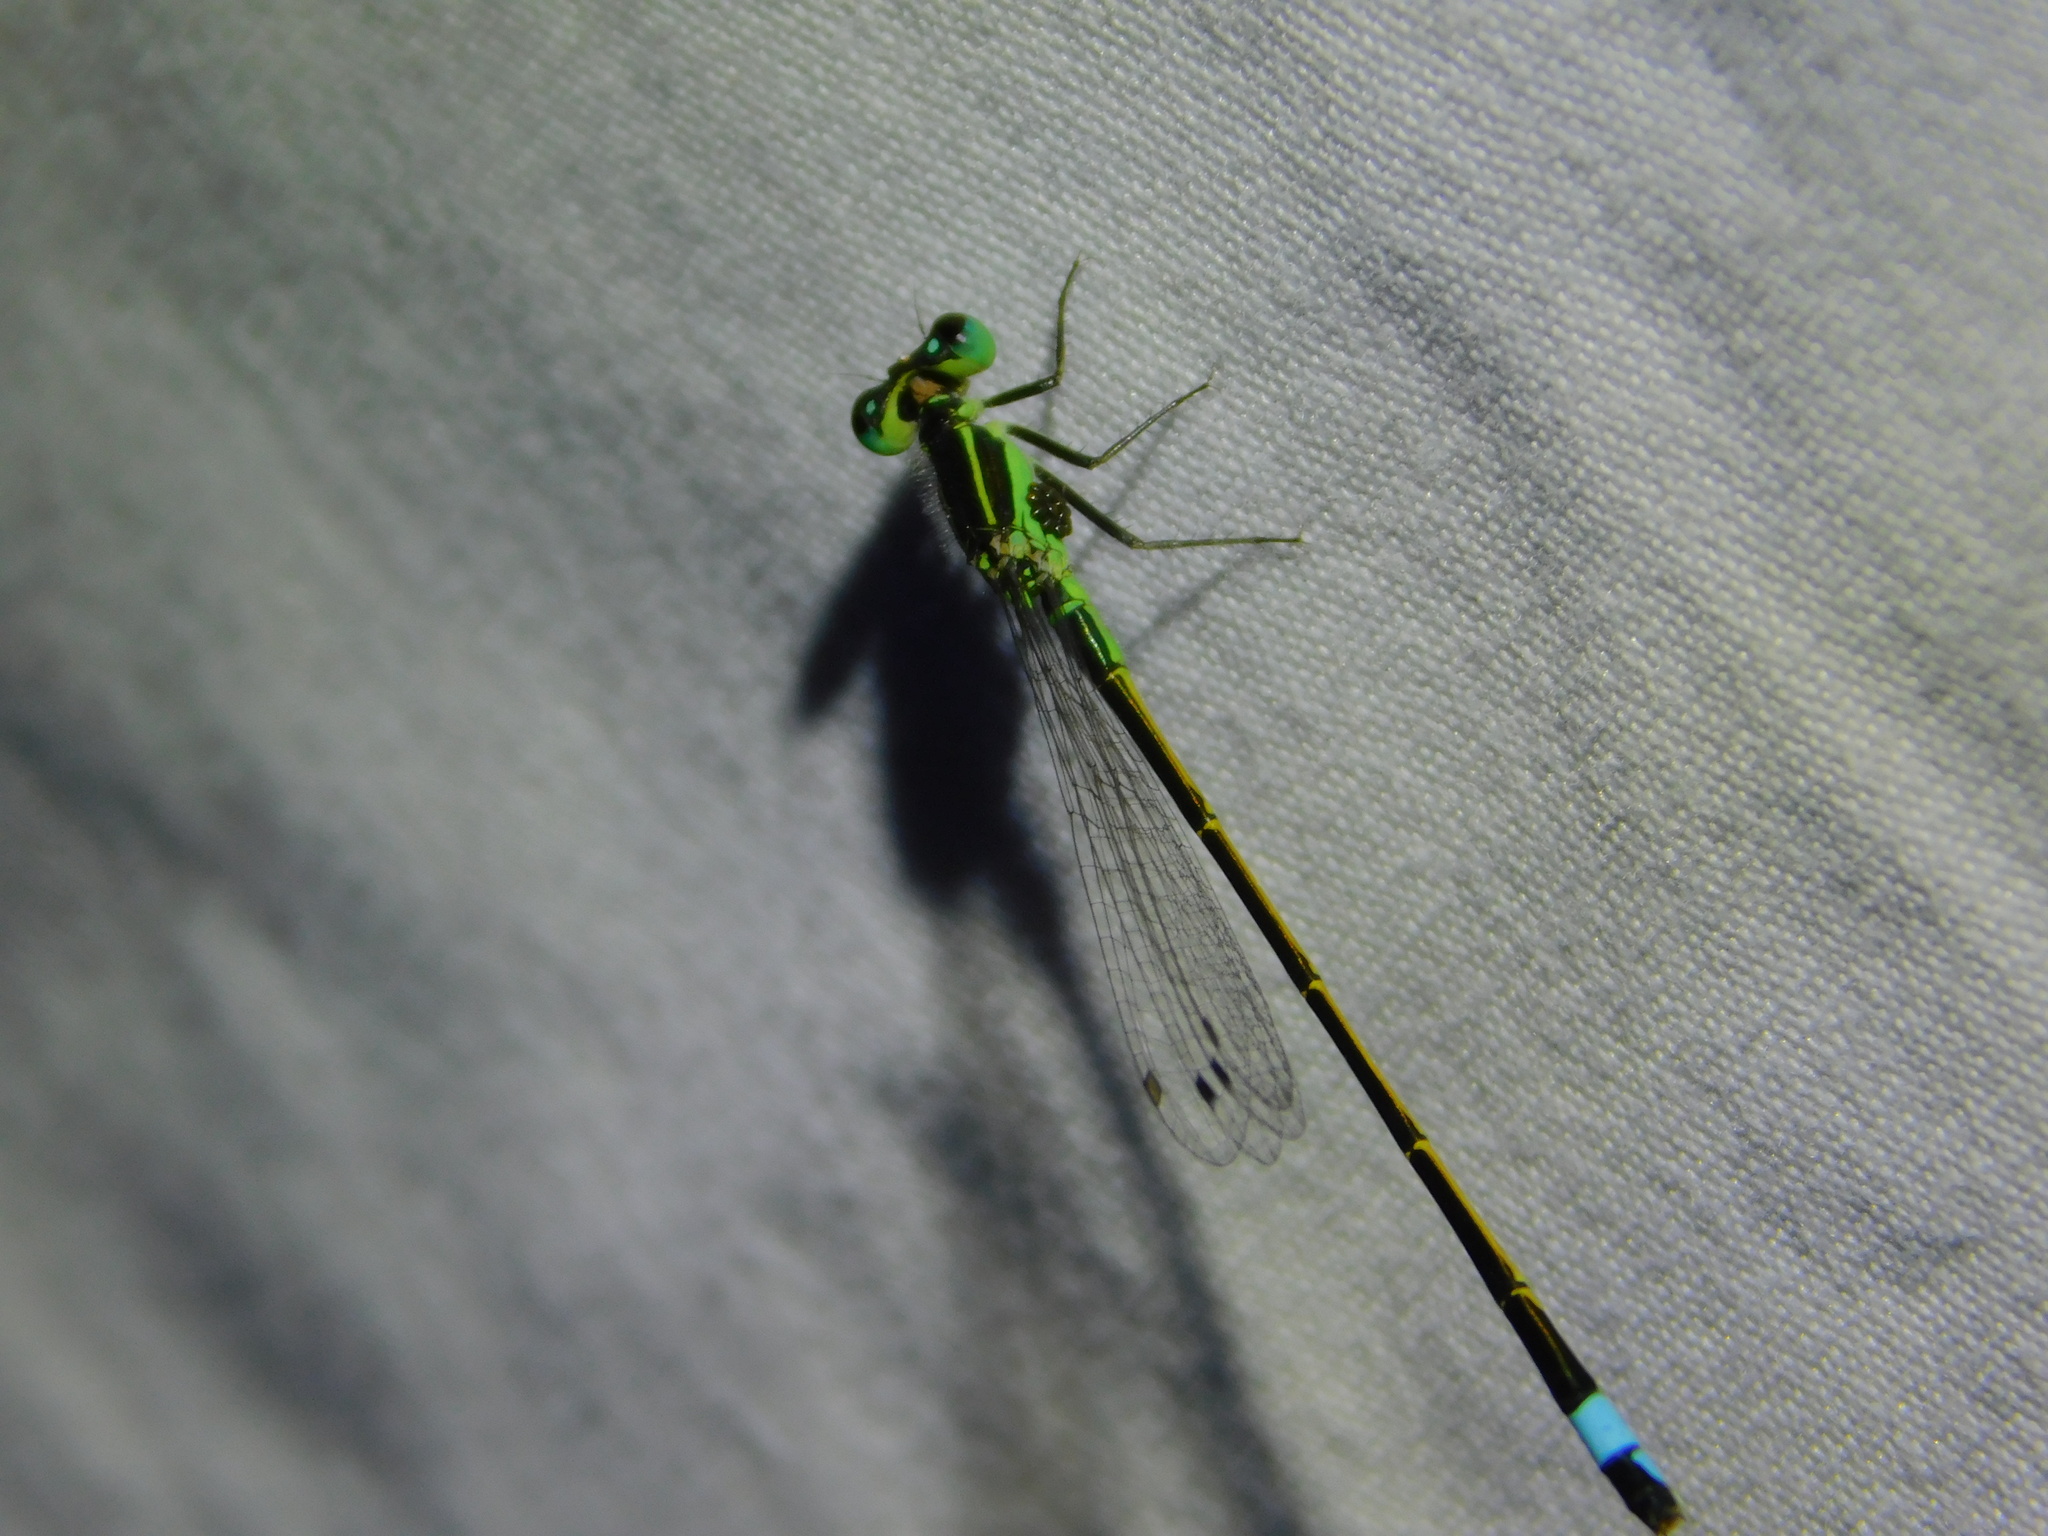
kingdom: Animalia
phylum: Arthropoda
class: Insecta
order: Odonata
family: Coenagrionidae
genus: Ischnura
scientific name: Ischnura ramburii
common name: Rambur's forktail
